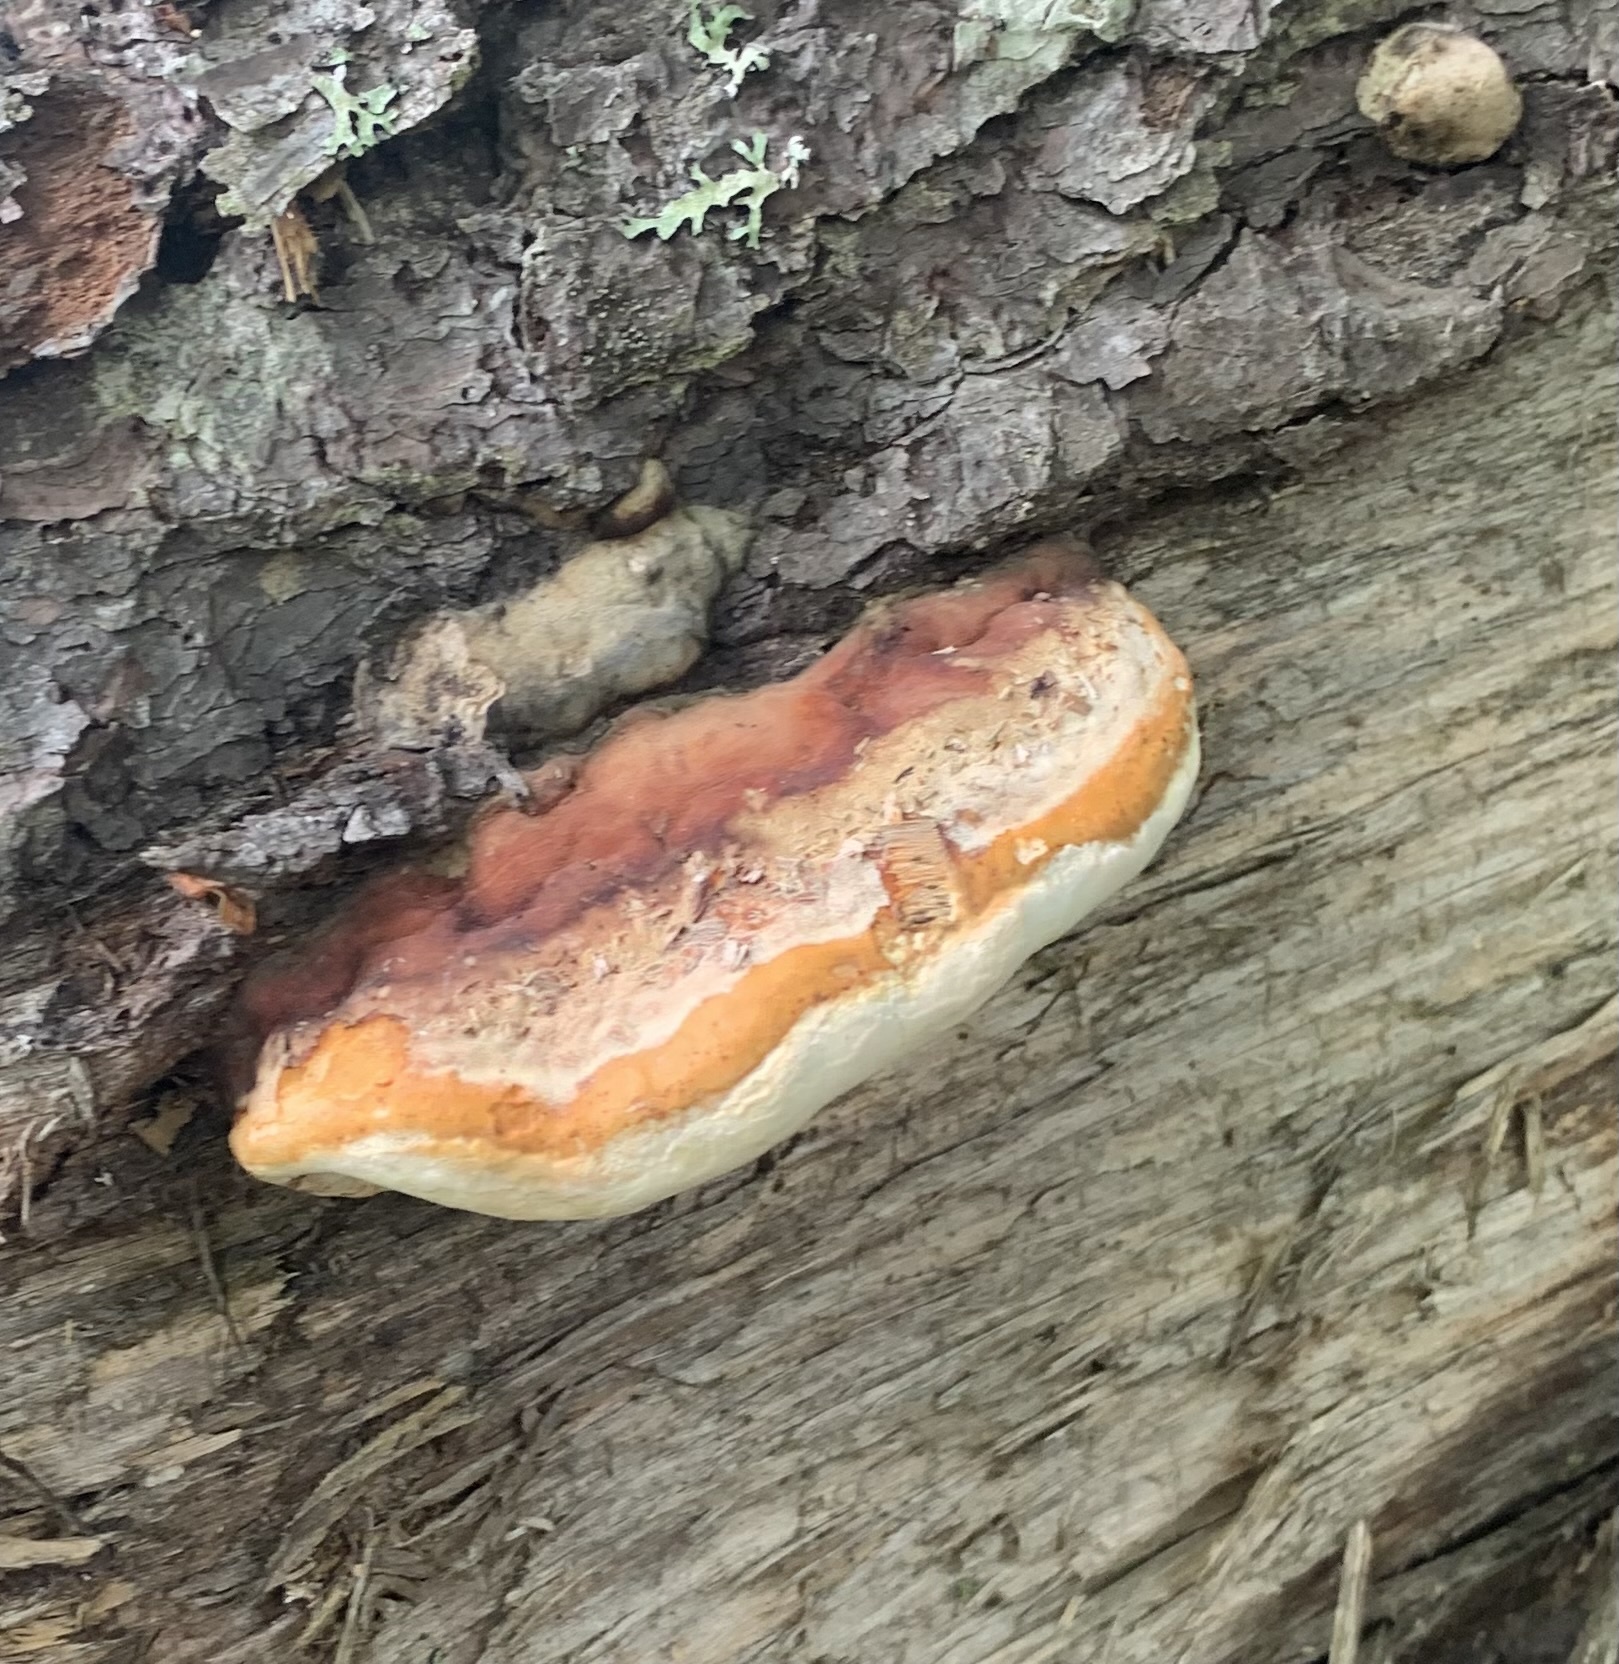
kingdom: Fungi
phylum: Basidiomycota
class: Agaricomycetes
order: Polyporales
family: Fomitopsidaceae
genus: Fomitopsis
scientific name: Fomitopsis mounceae
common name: Northern red belt
